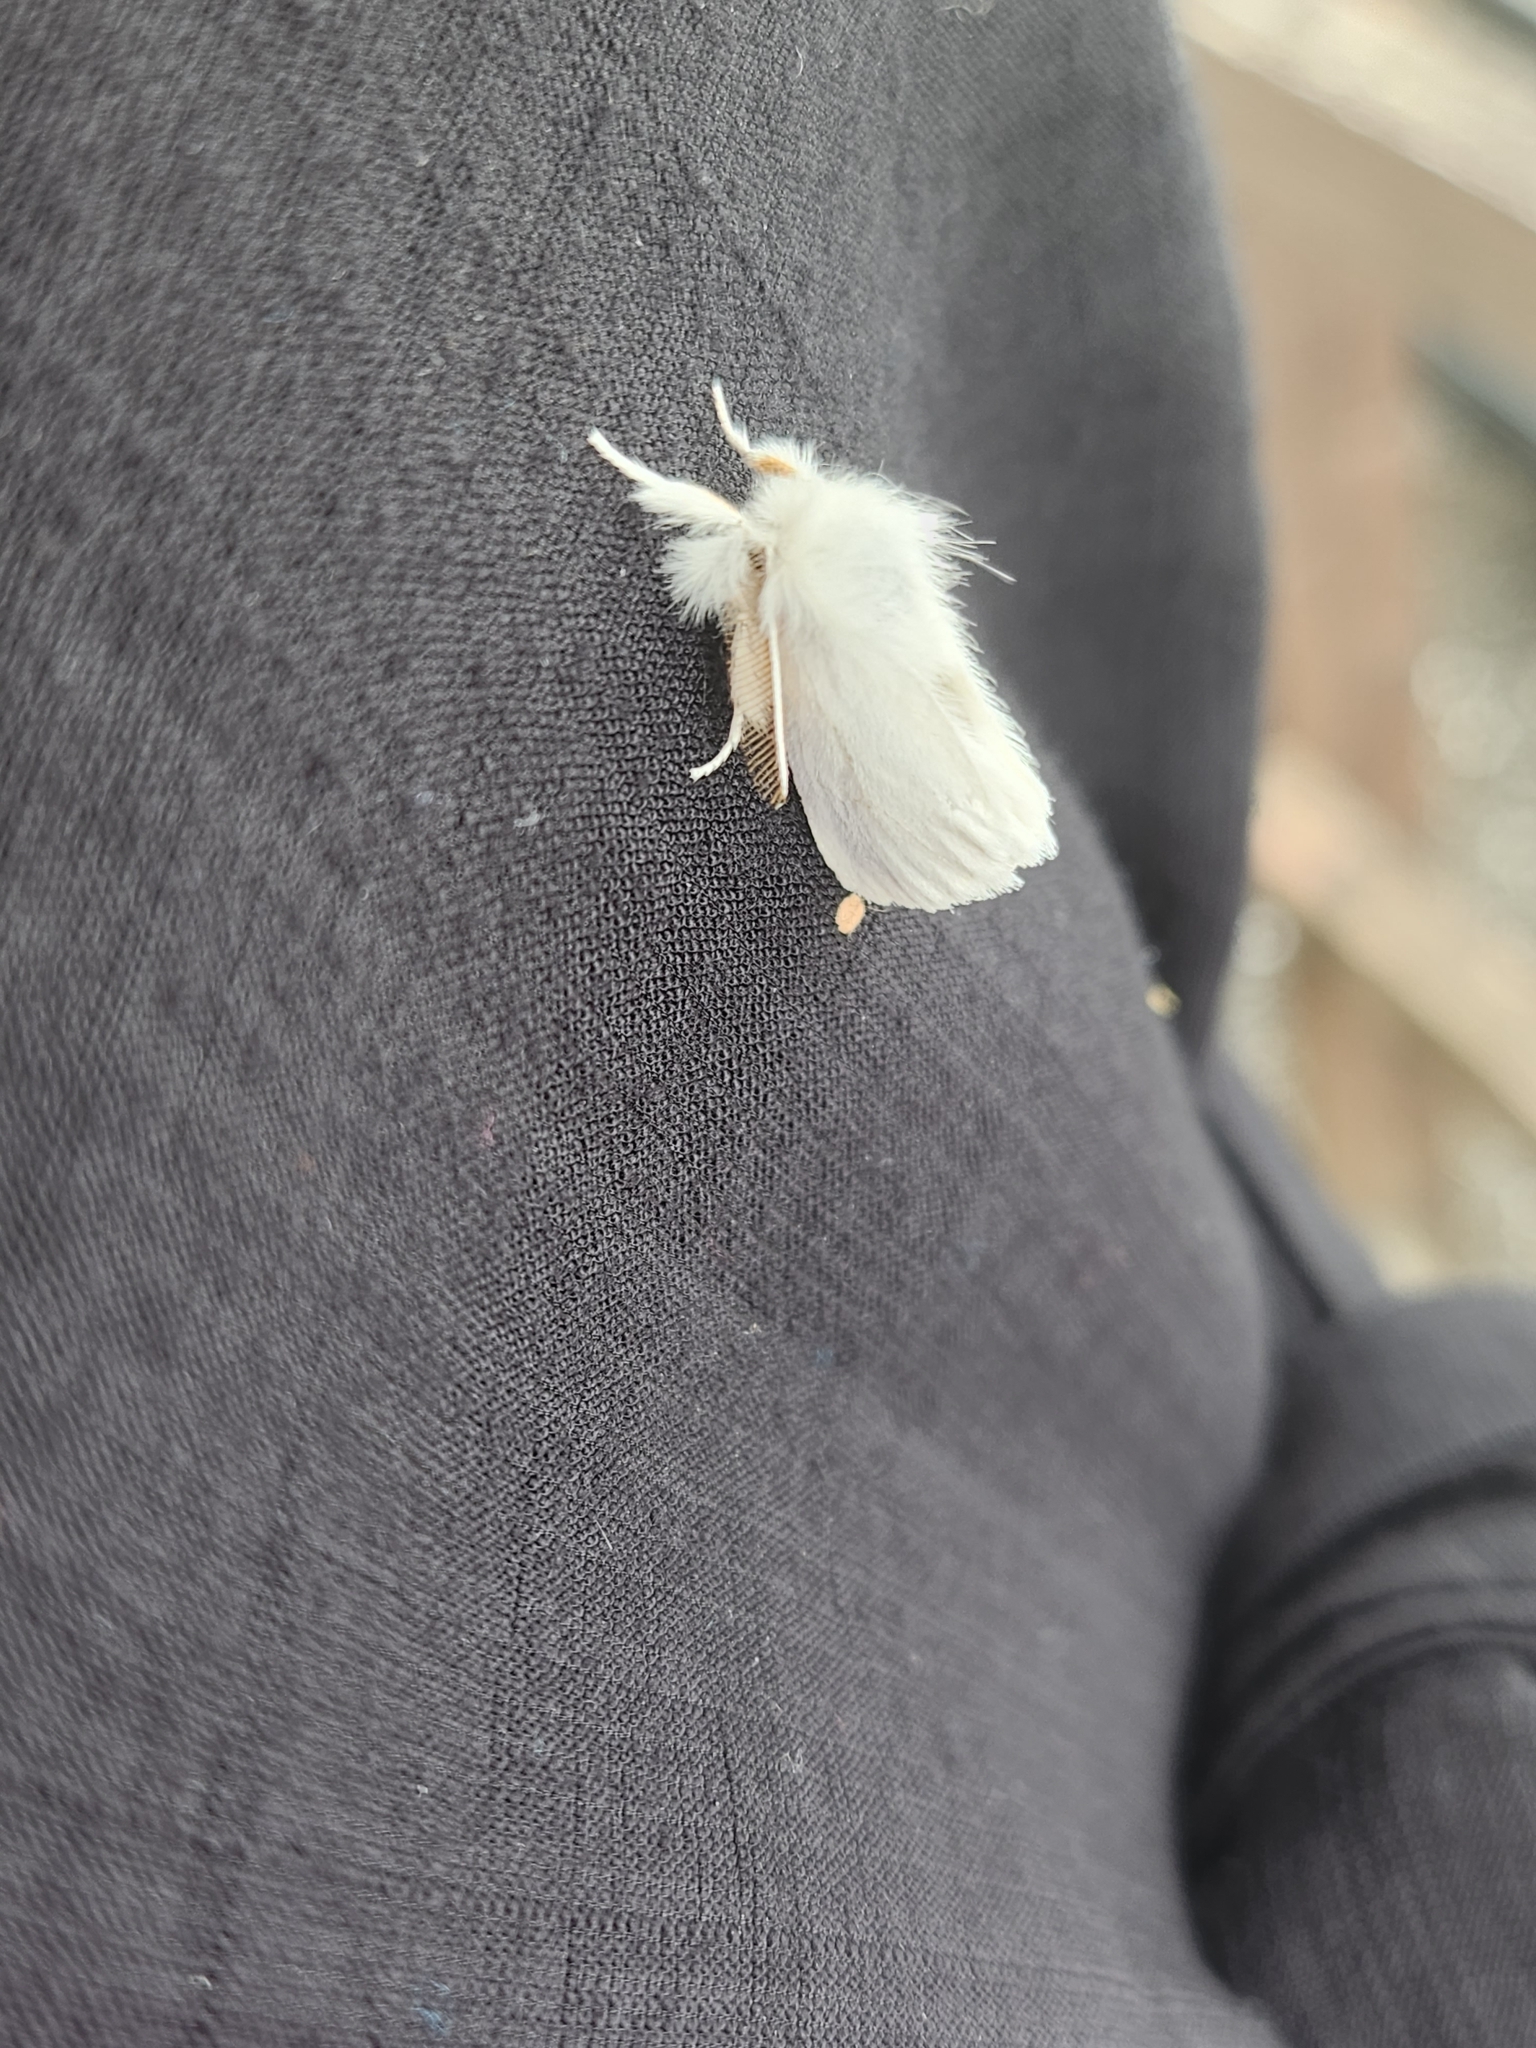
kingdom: Animalia
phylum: Arthropoda
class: Insecta
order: Lepidoptera
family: Erebidae
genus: Euproctis
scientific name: Euproctis chrysorrhoea
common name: Brown-tail
